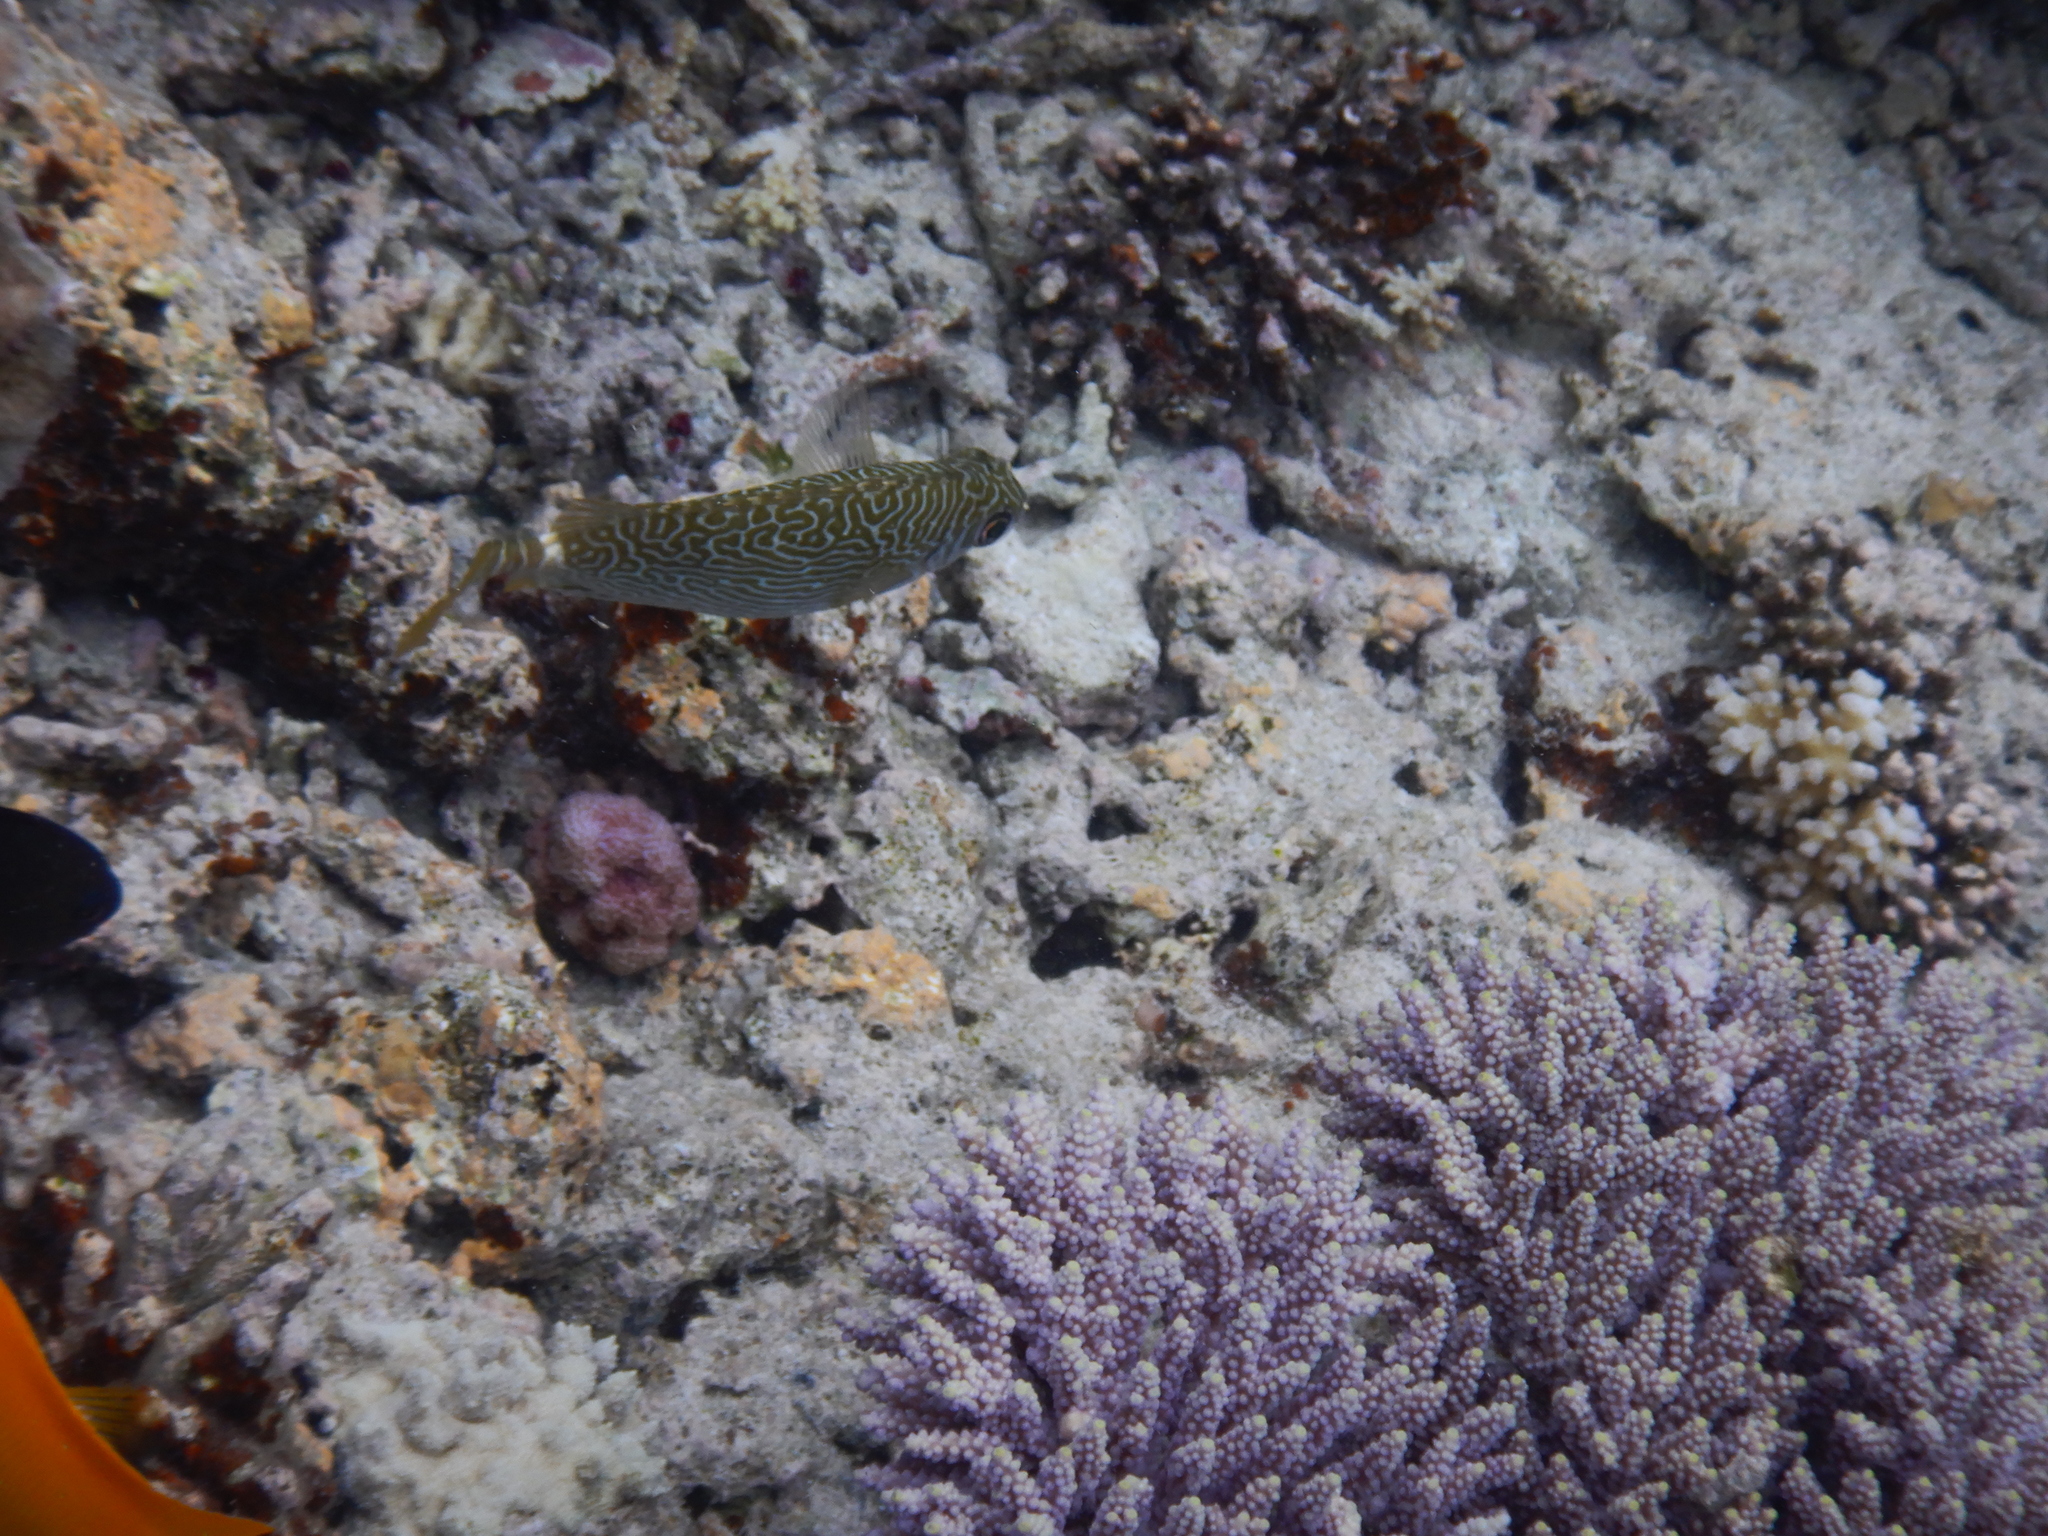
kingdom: Animalia
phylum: Chordata
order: Perciformes
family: Siganidae
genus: Siganus
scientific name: Siganus spinus
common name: Scribbled rabbitfish
